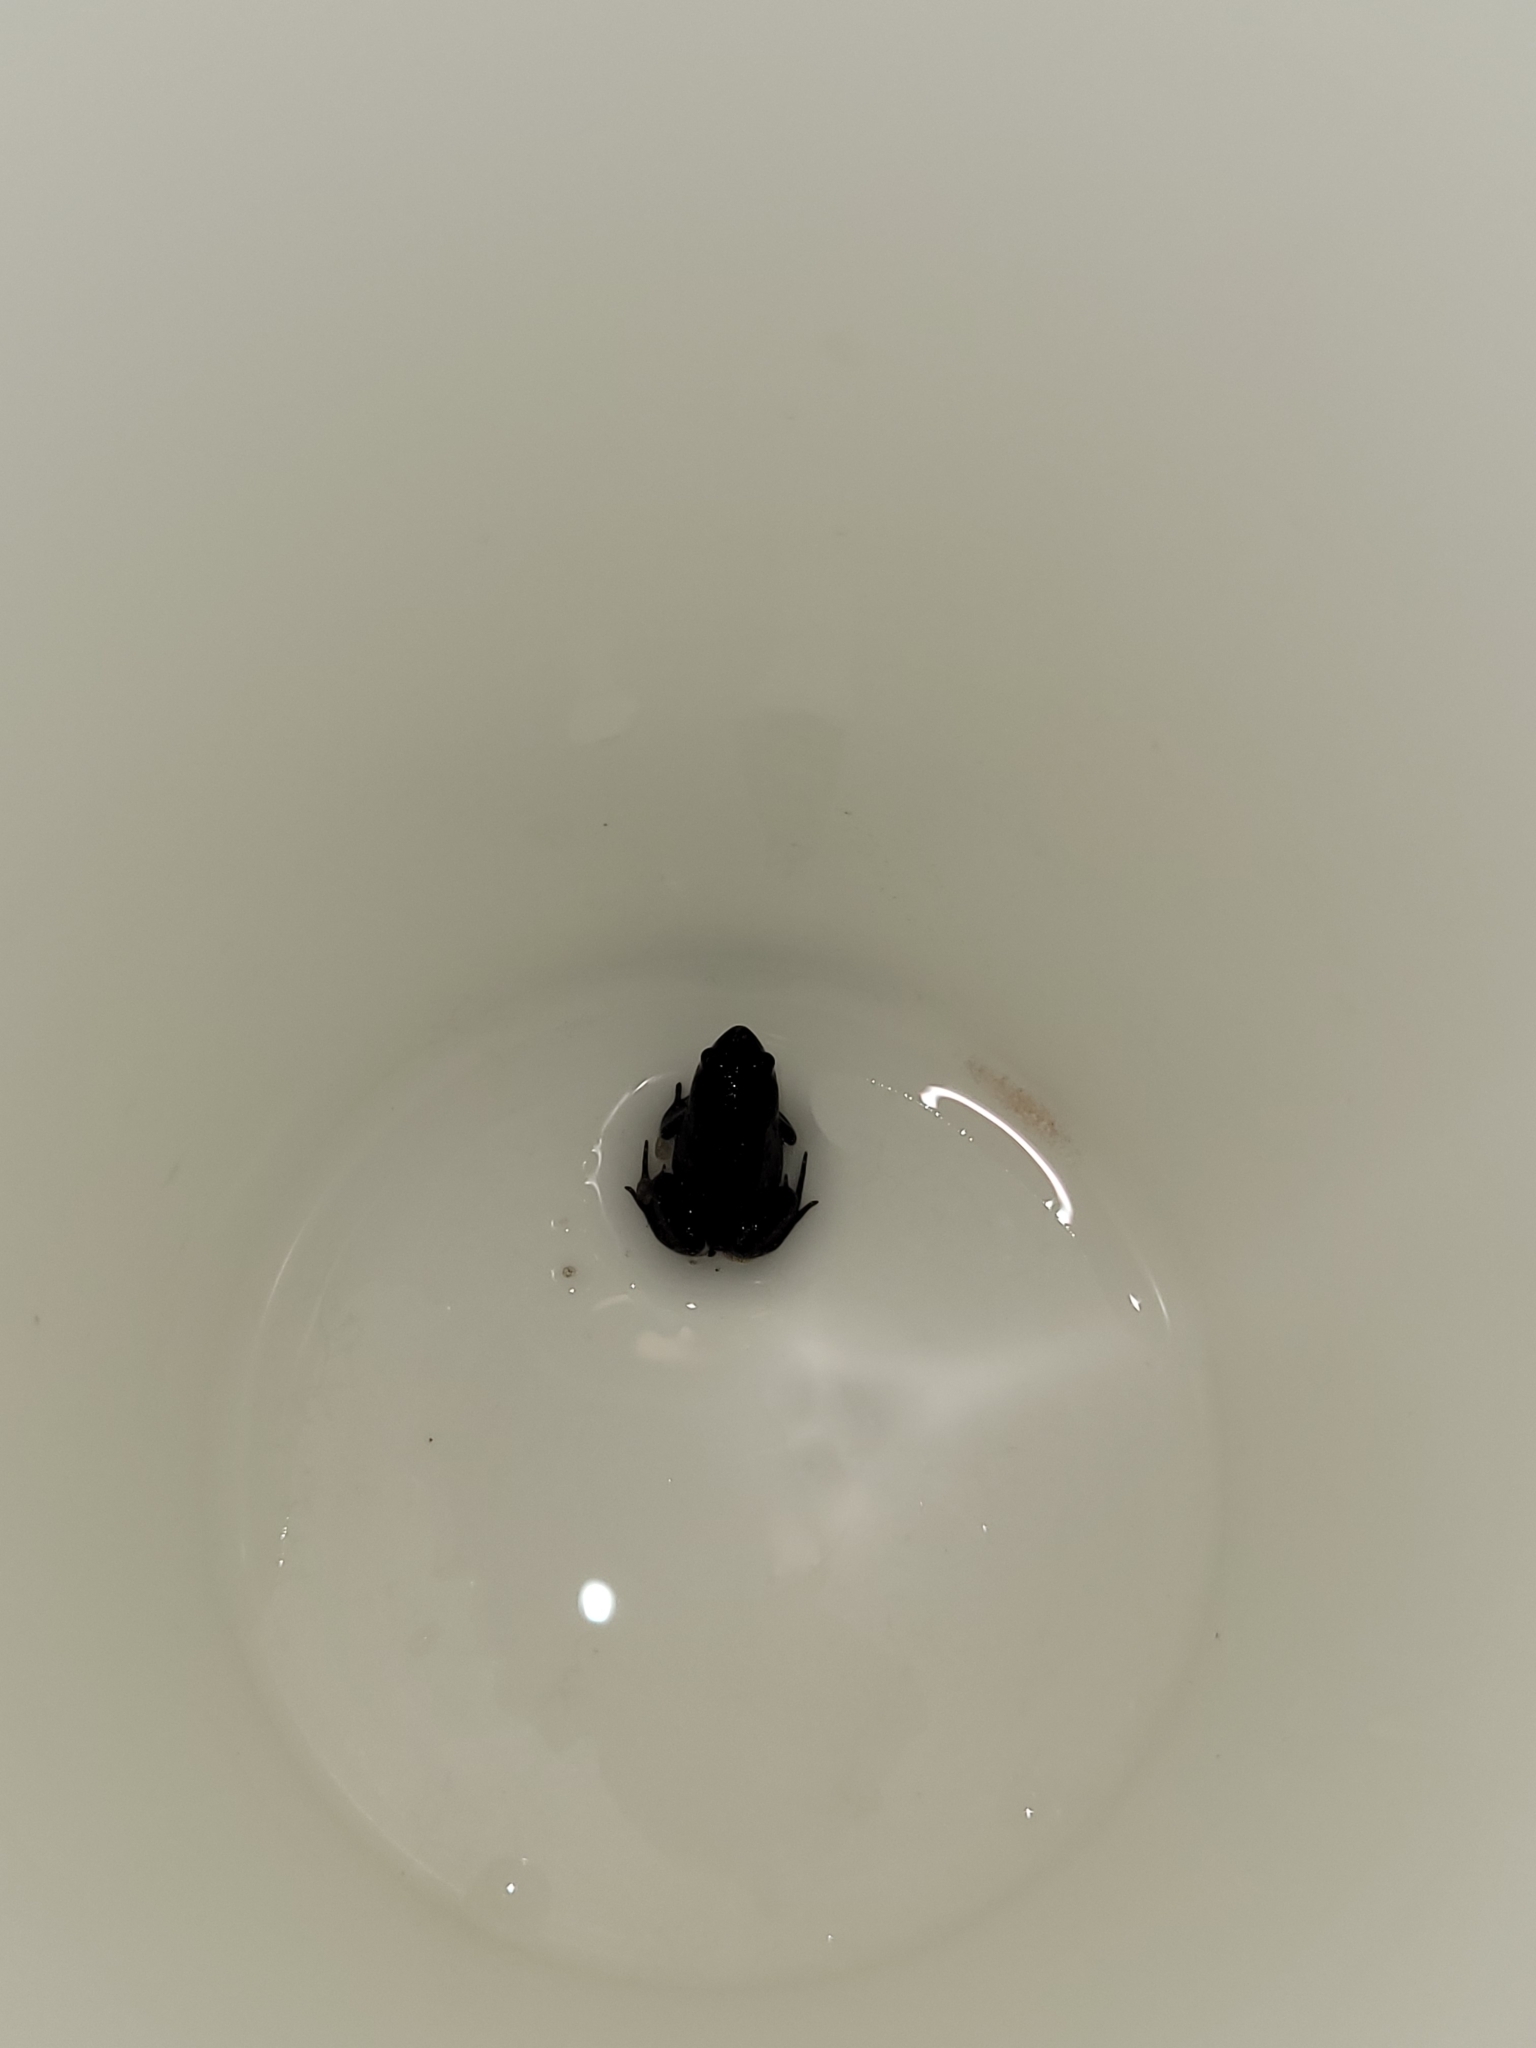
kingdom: Animalia
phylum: Chordata
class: Amphibia
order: Anura
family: Microhylidae
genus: Gastrophryne
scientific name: Gastrophryne carolinensis
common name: Eastern narrowmouth toad
